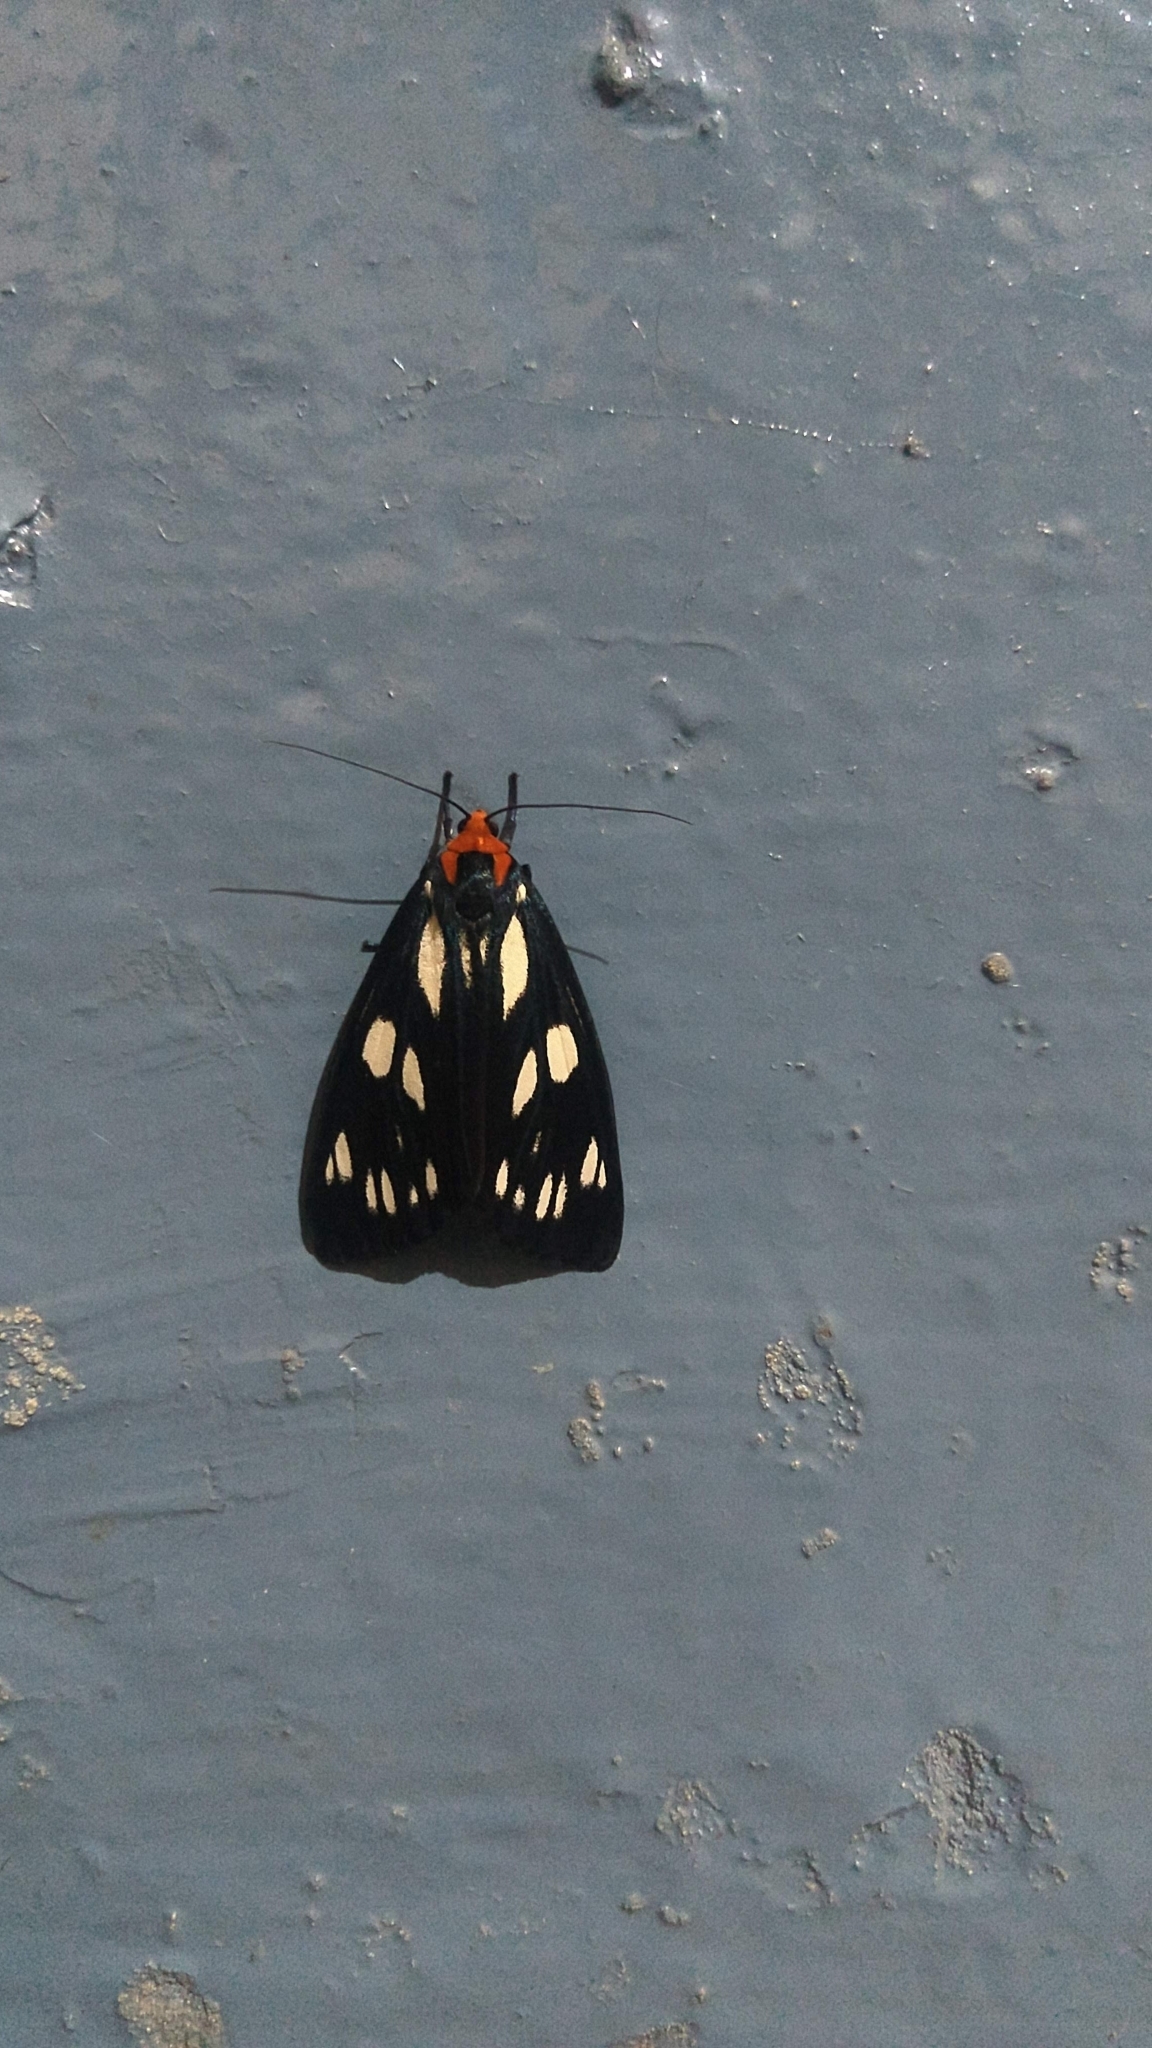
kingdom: Animalia
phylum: Arthropoda
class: Insecta
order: Lepidoptera
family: Erebidae
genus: Macrobrochis
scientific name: Macrobrochis gigas
